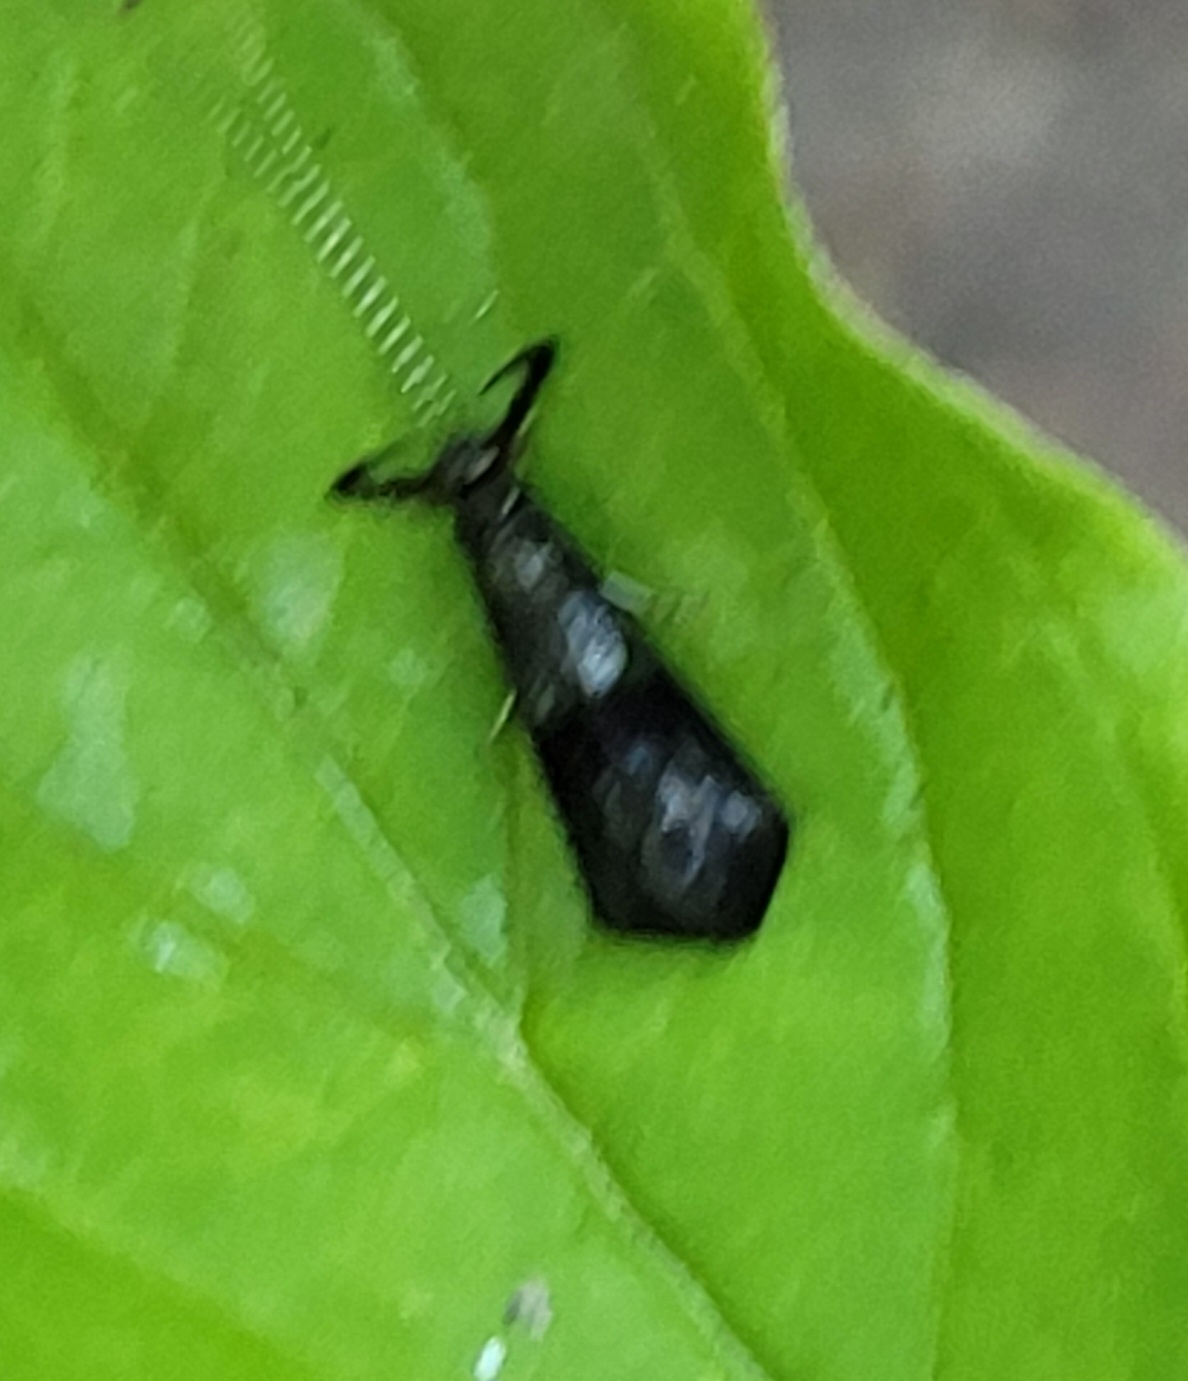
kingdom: Animalia
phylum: Arthropoda
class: Insecta
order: Trichoptera
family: Leptoceridae
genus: Mystacides
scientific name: Mystacides azureus
